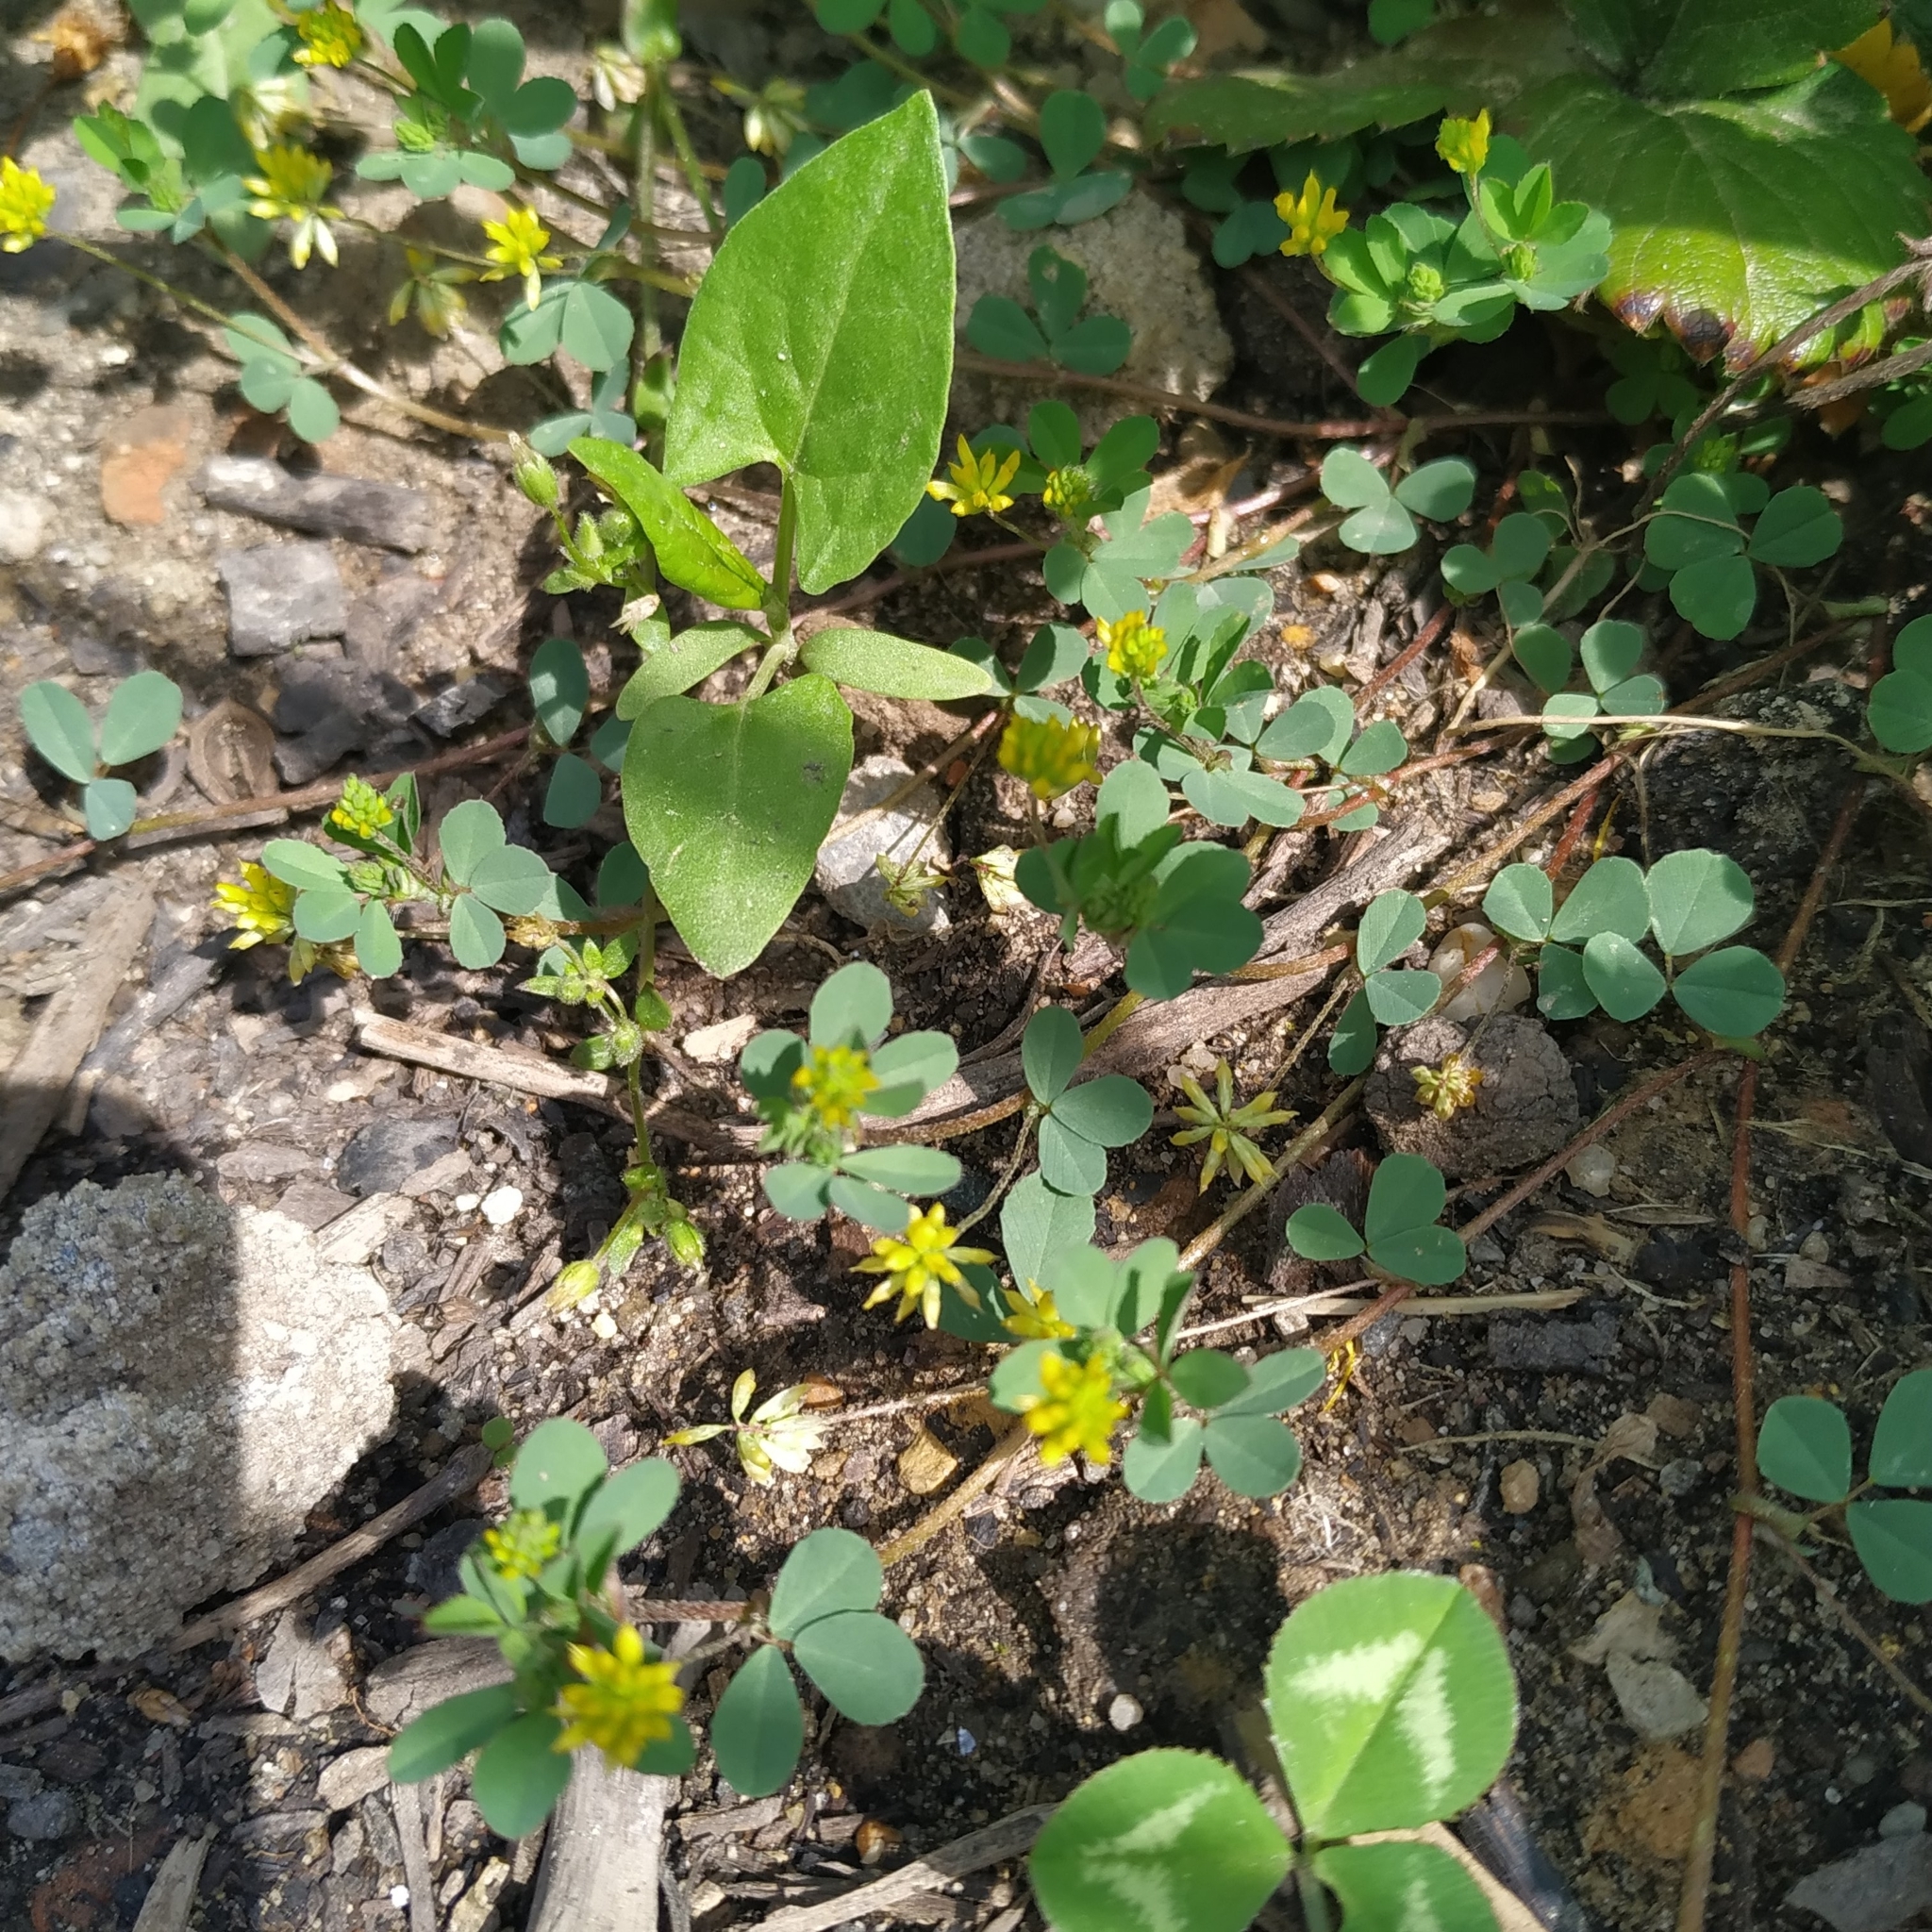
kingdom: Plantae
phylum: Tracheophyta
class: Magnoliopsida
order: Fabales
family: Fabaceae
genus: Trifolium
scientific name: Trifolium dubium
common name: Suckling clover
